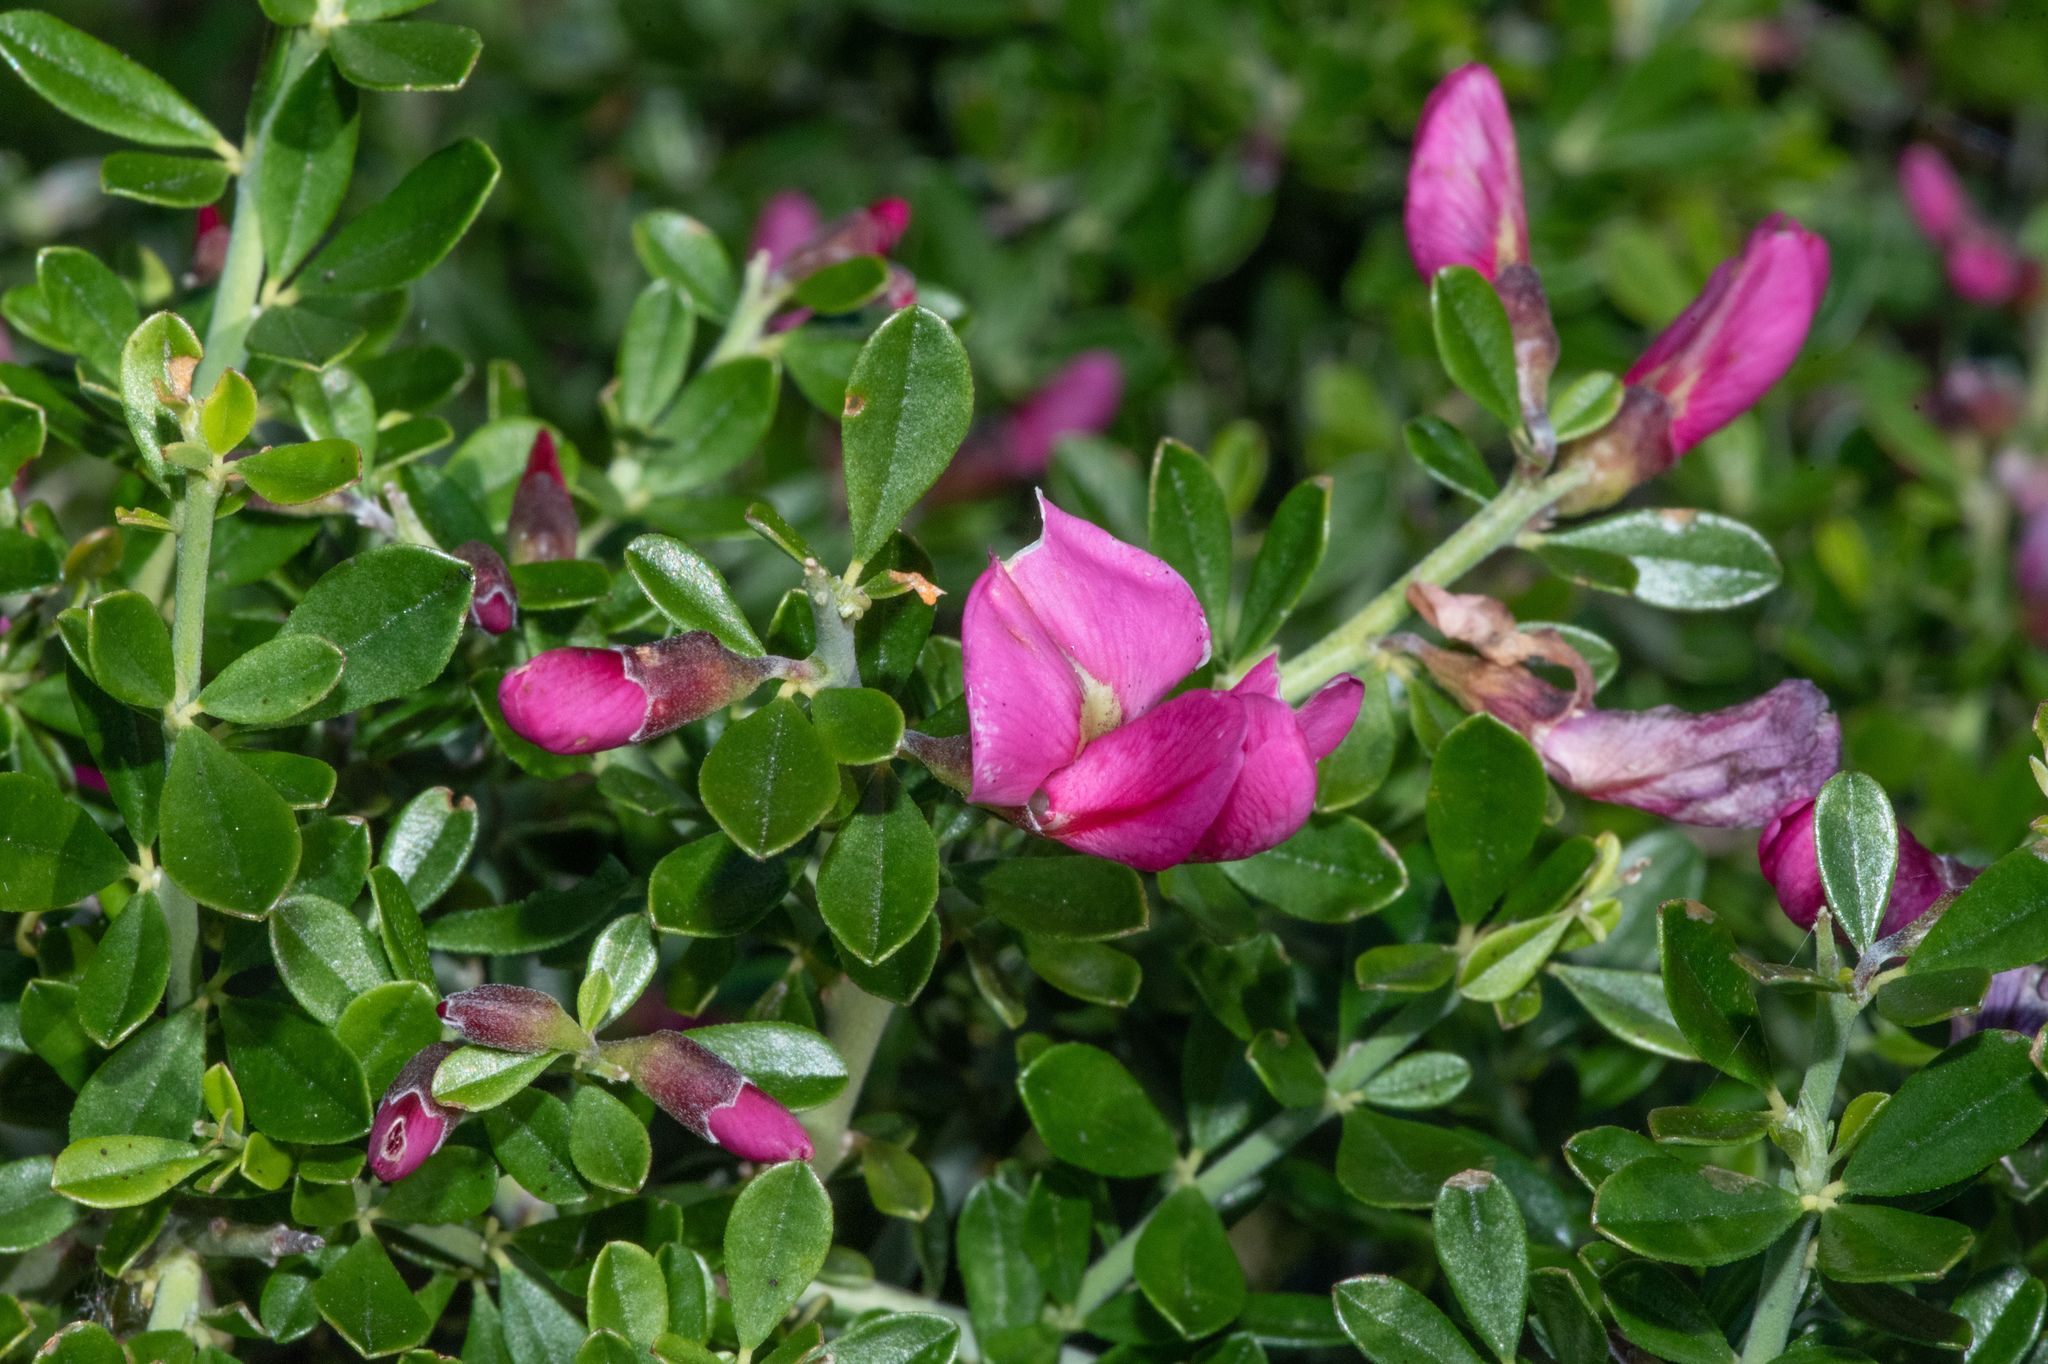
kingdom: Plantae
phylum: Tracheophyta
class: Magnoliopsida
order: Fabales
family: Fabaceae
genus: Pickeringia
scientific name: Pickeringia montana
